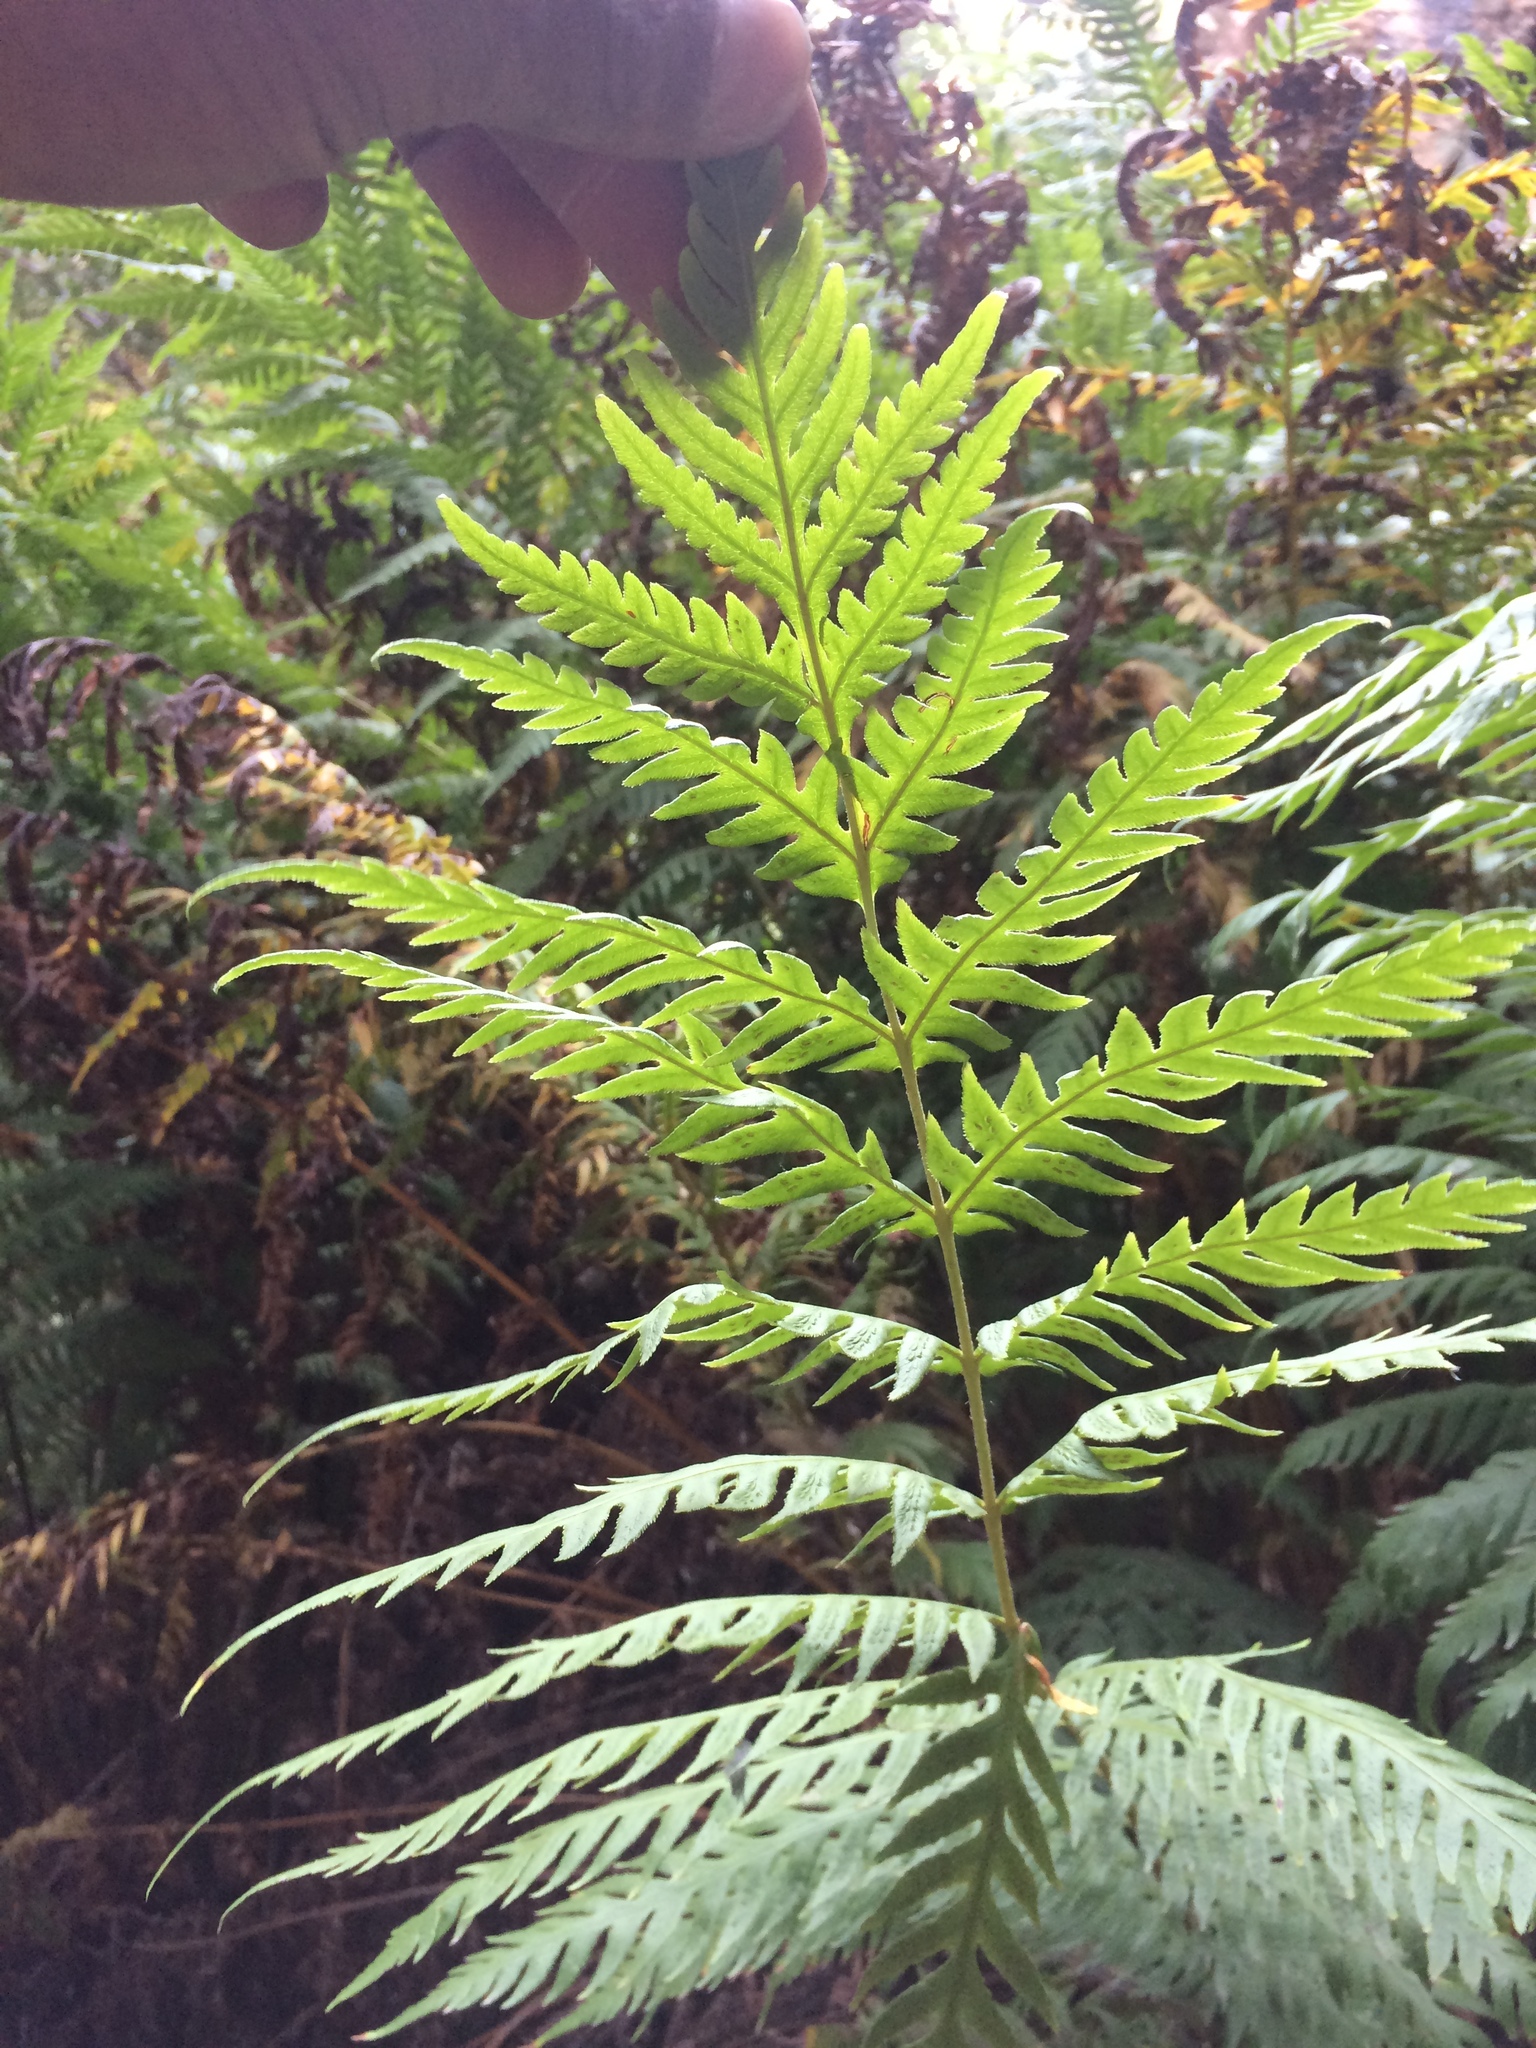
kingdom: Plantae
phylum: Tracheophyta
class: Polypodiopsida
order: Polypodiales
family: Blechnaceae
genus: Woodwardia
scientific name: Woodwardia fimbriata
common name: Giant chain fern
